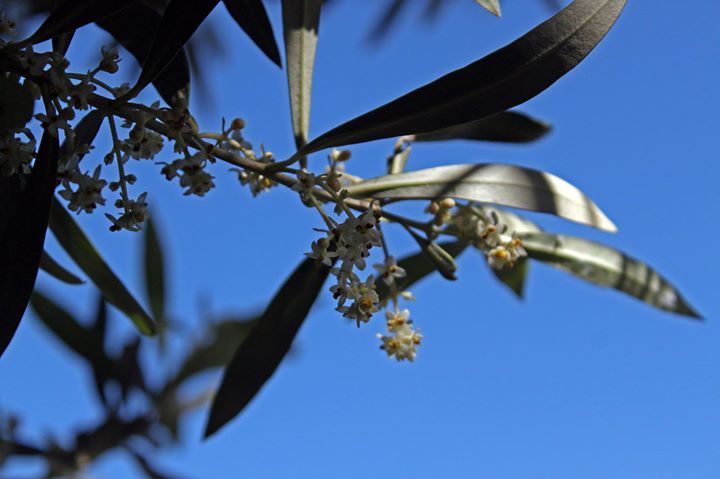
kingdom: Plantae
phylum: Tracheophyta
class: Magnoliopsida
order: Lamiales
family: Oleaceae
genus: Olea
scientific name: Olea europaea
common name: Olive
